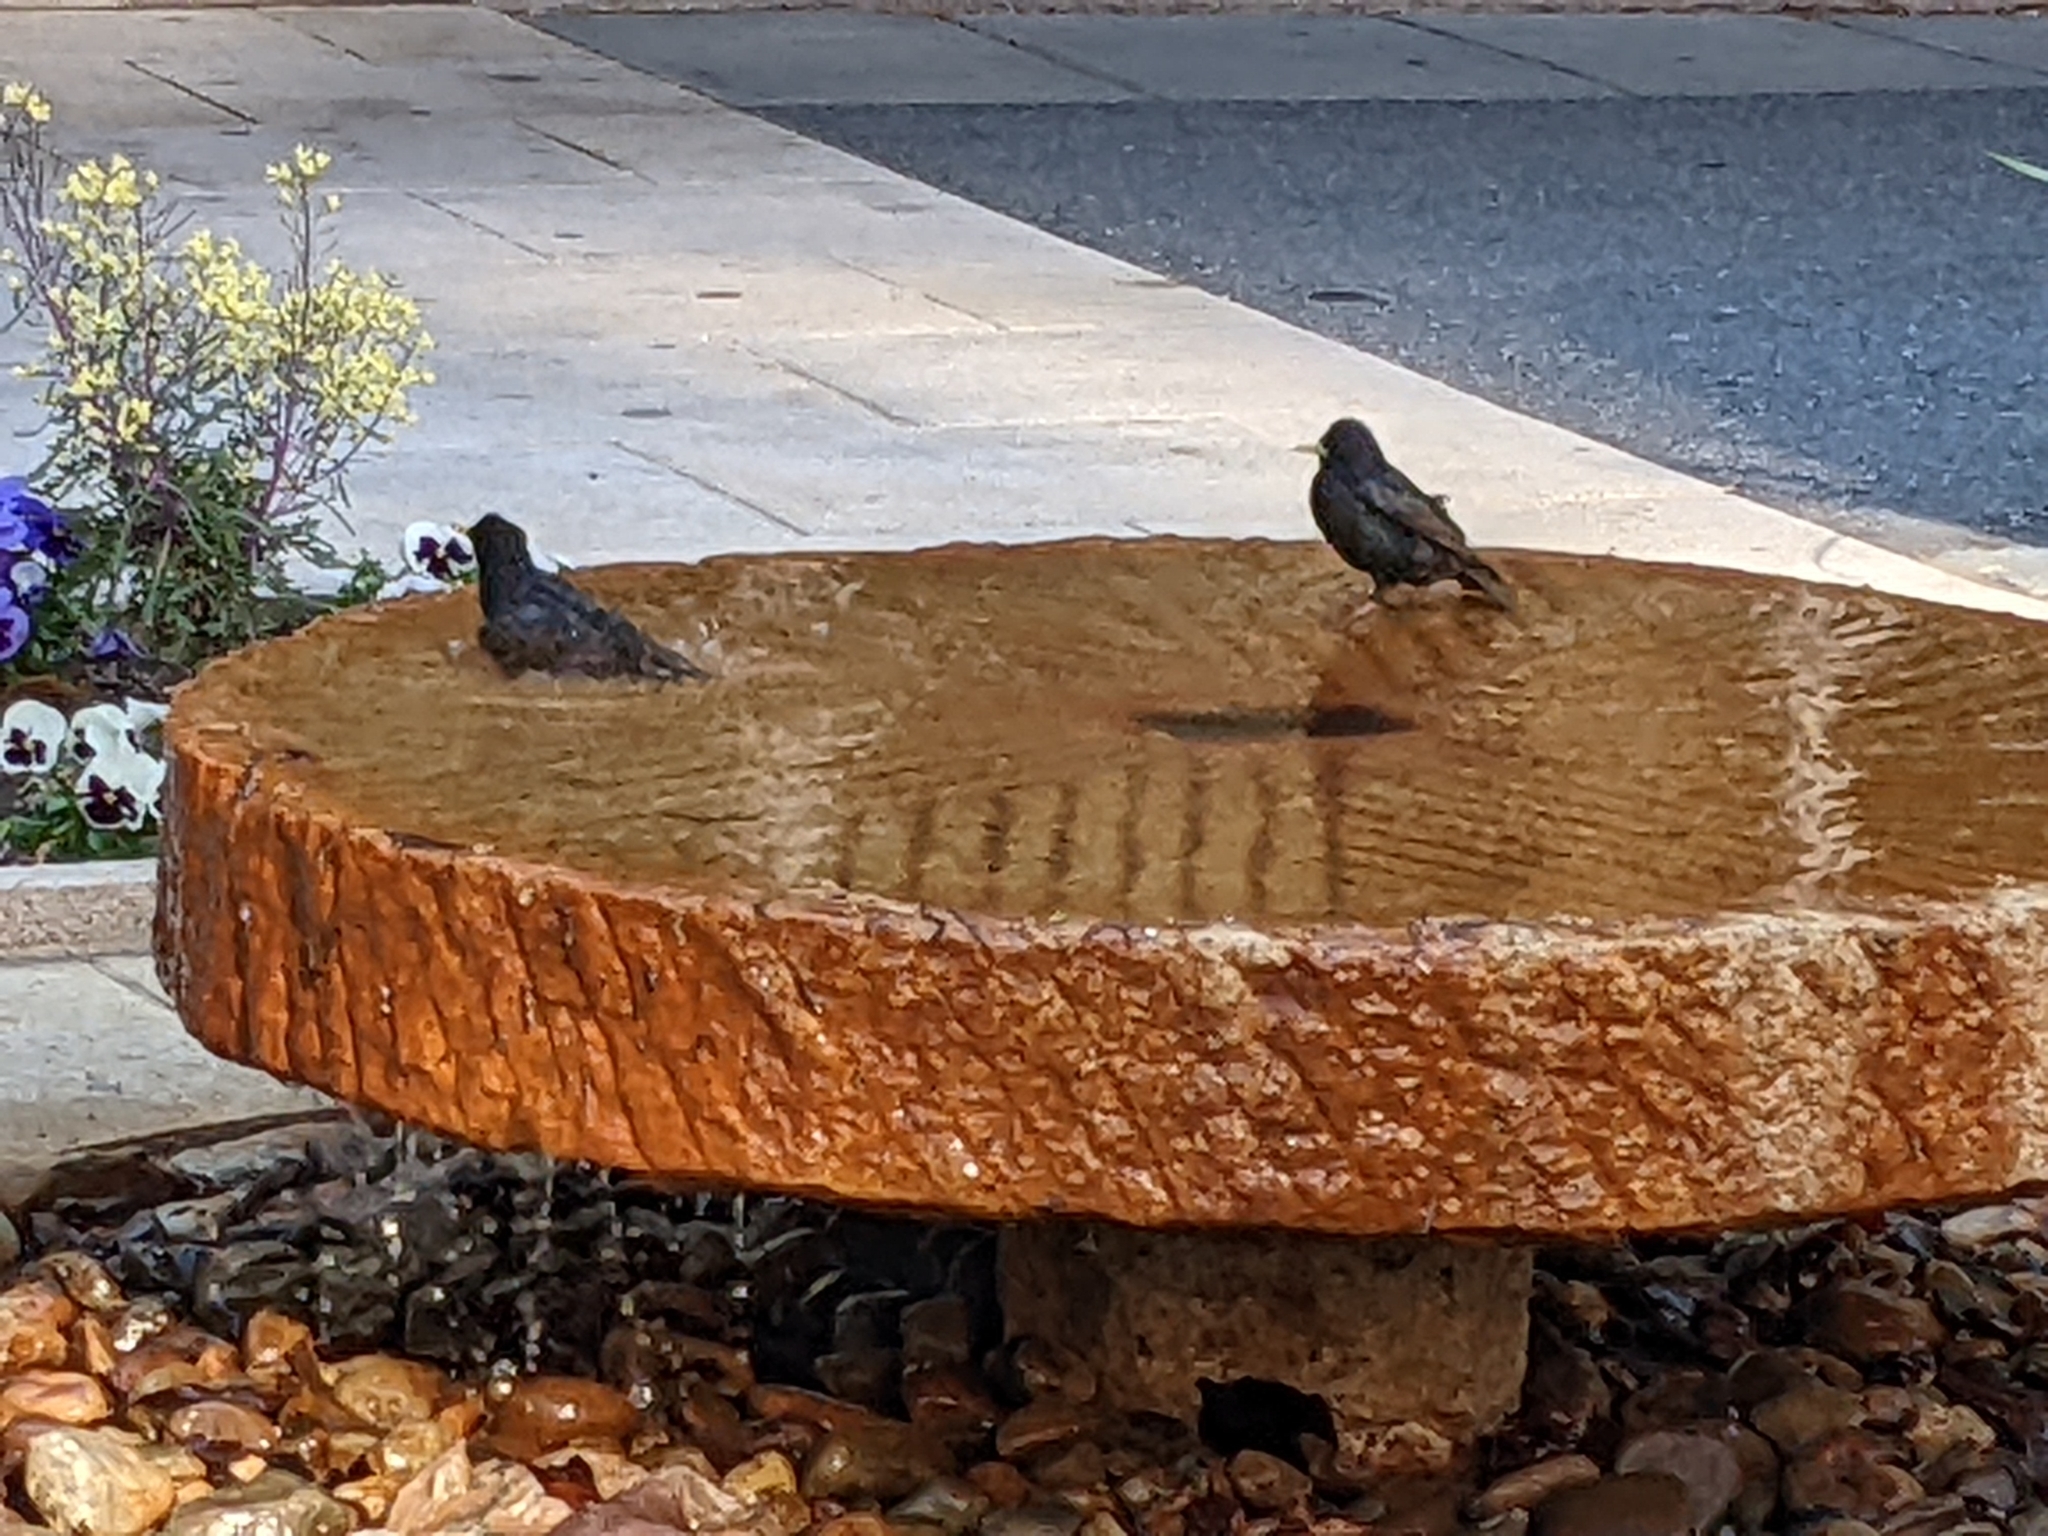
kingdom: Animalia
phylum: Chordata
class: Aves
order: Passeriformes
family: Sturnidae
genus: Sturnus
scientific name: Sturnus vulgaris
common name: Common starling
